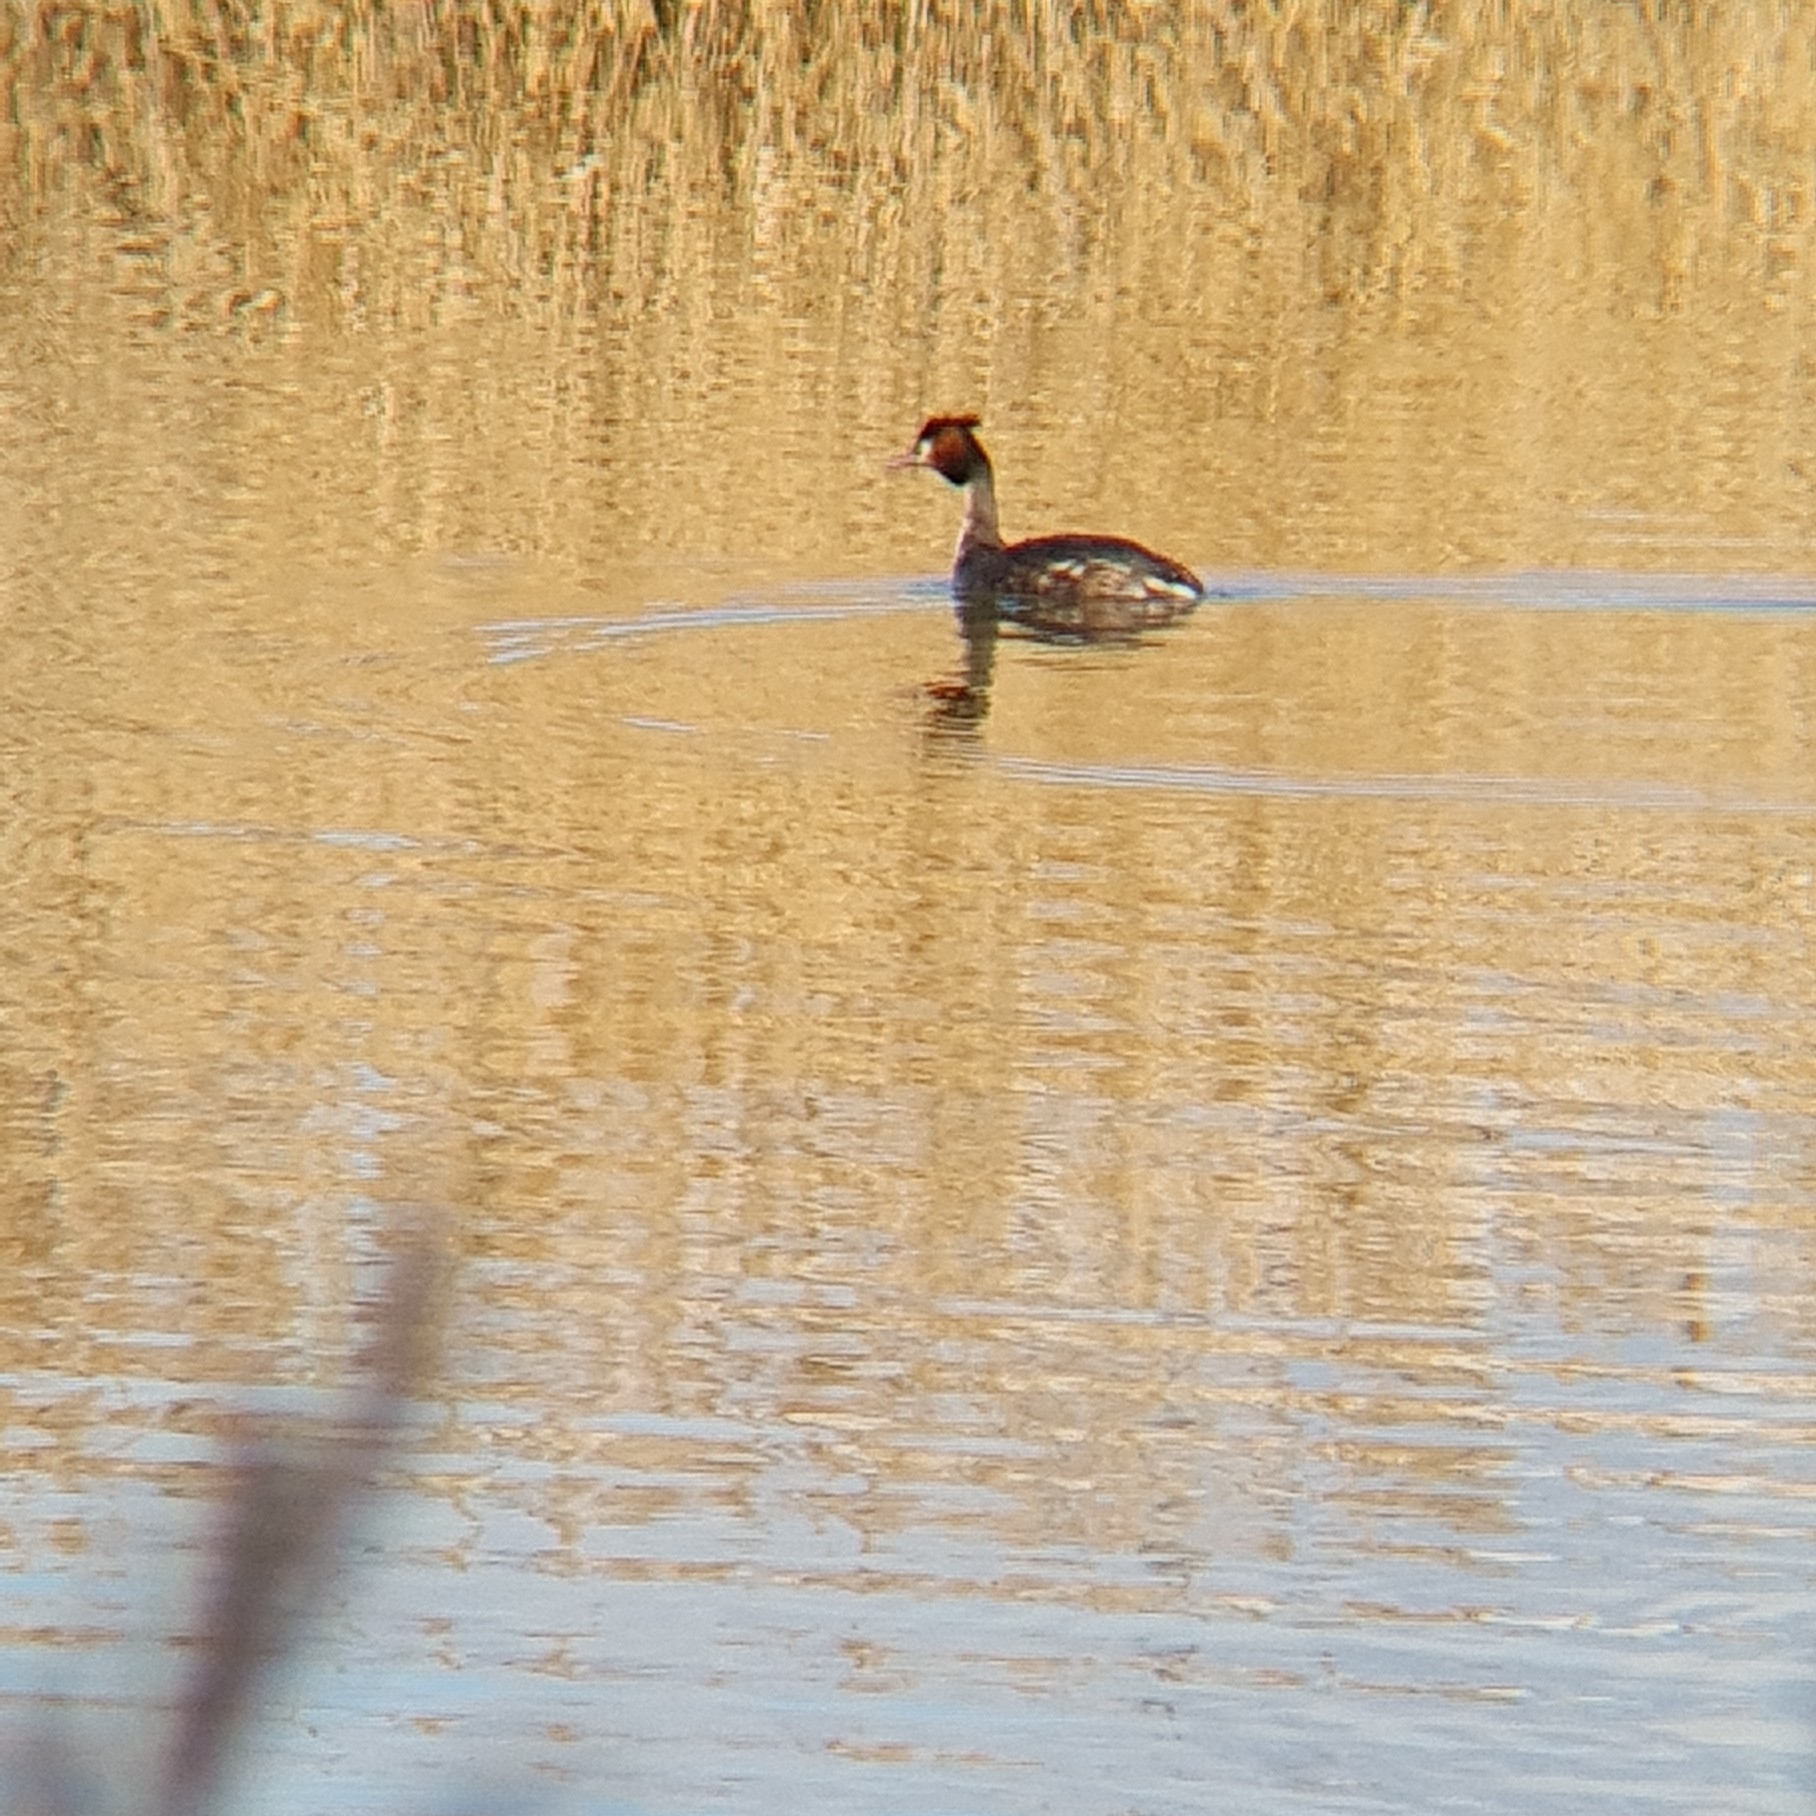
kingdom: Animalia
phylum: Chordata
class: Aves
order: Podicipediformes
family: Podicipedidae
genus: Podiceps
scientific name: Podiceps cristatus
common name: Great crested grebe
